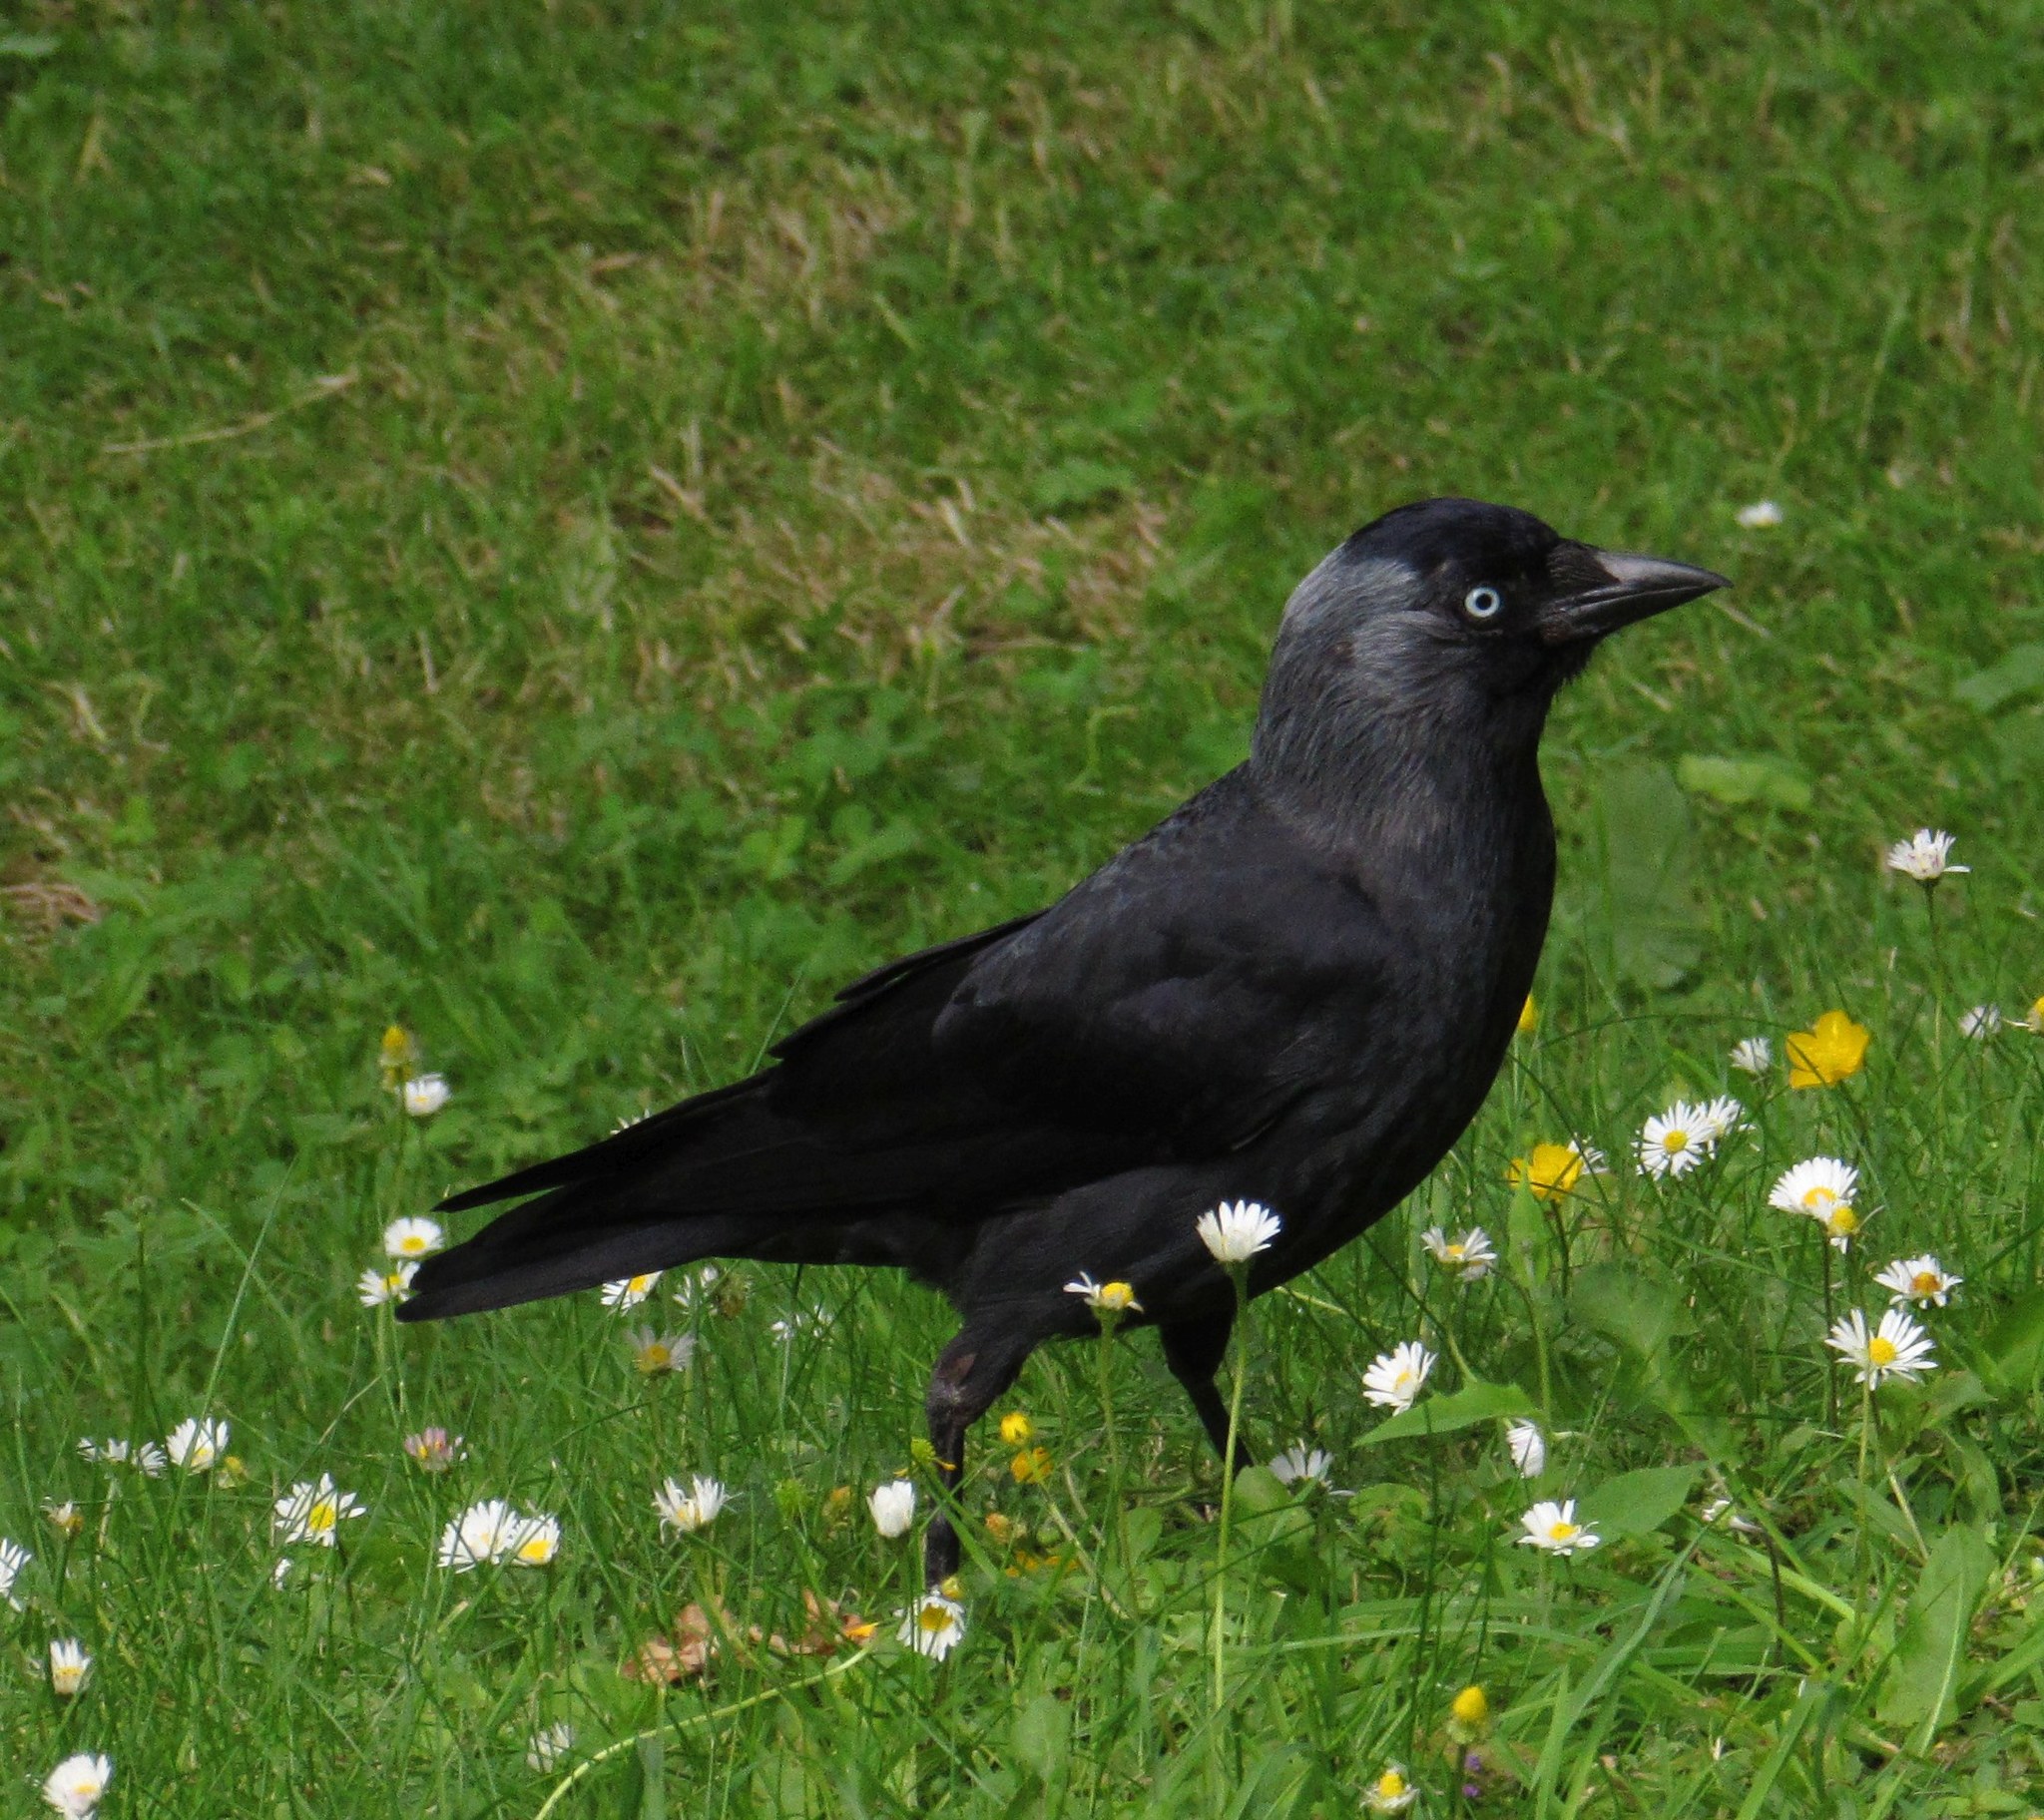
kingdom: Animalia
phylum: Chordata
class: Aves
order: Passeriformes
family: Corvidae
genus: Coloeus
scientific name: Coloeus monedula
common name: Western jackdaw
